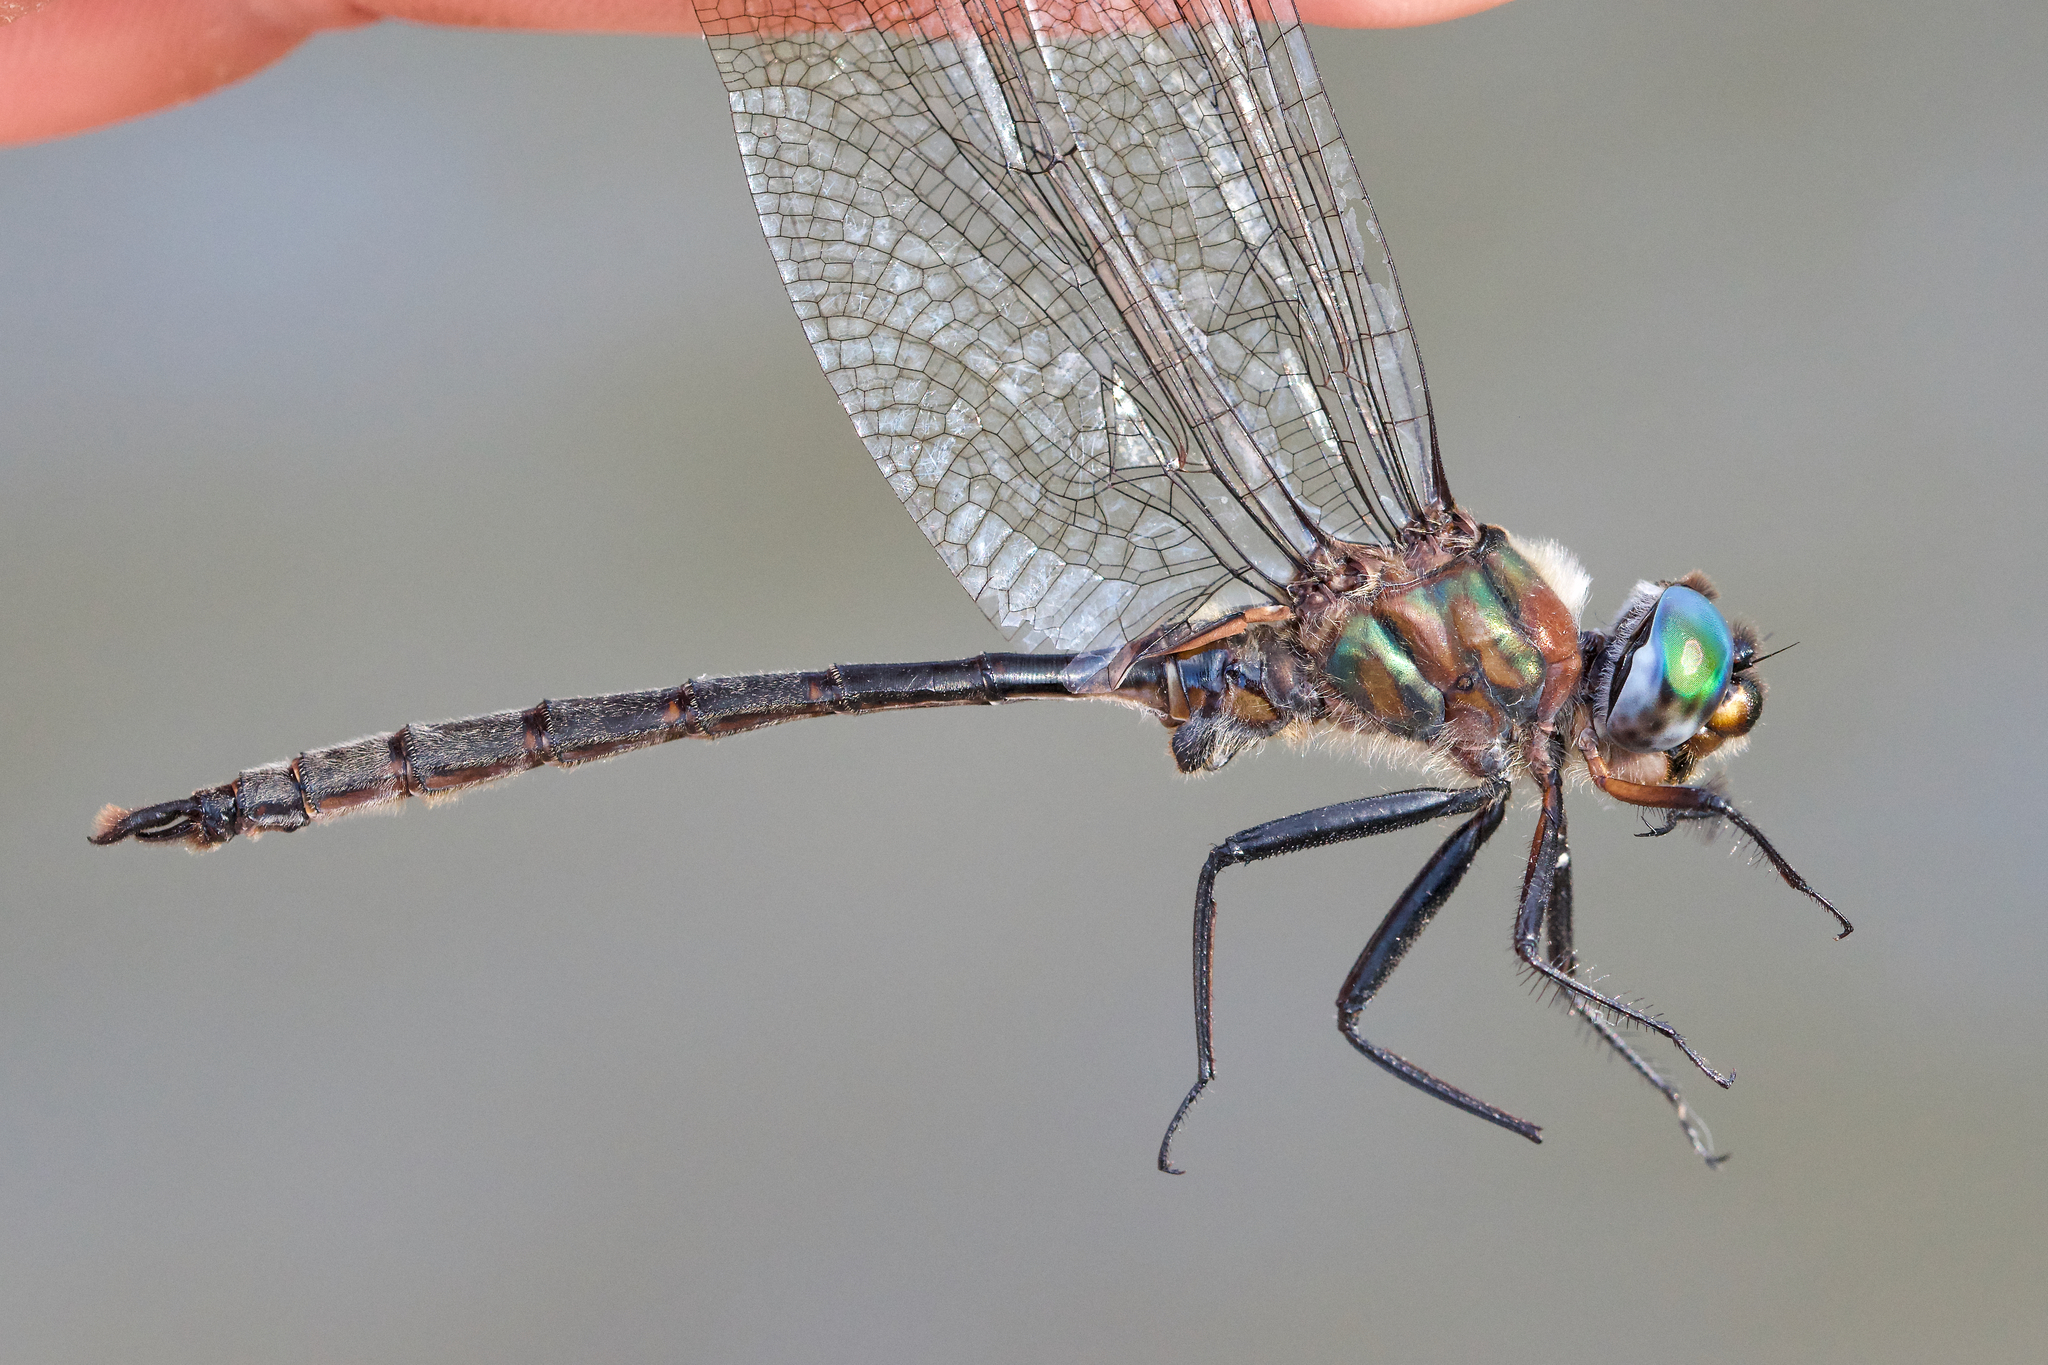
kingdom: Animalia
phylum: Arthropoda
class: Insecta
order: Odonata
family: Corduliidae
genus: Somatochlora
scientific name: Somatochlora williamsoni
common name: Williamson's emerald
